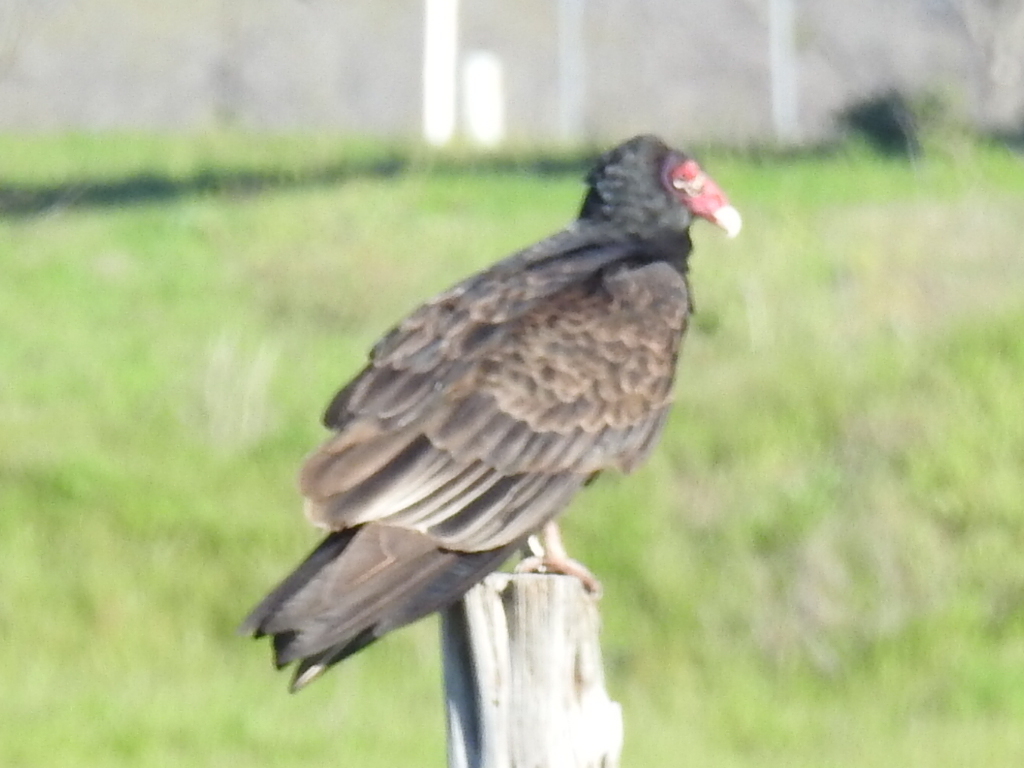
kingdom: Animalia
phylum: Chordata
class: Aves
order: Accipitriformes
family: Cathartidae
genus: Cathartes
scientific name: Cathartes aura
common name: Turkey vulture
